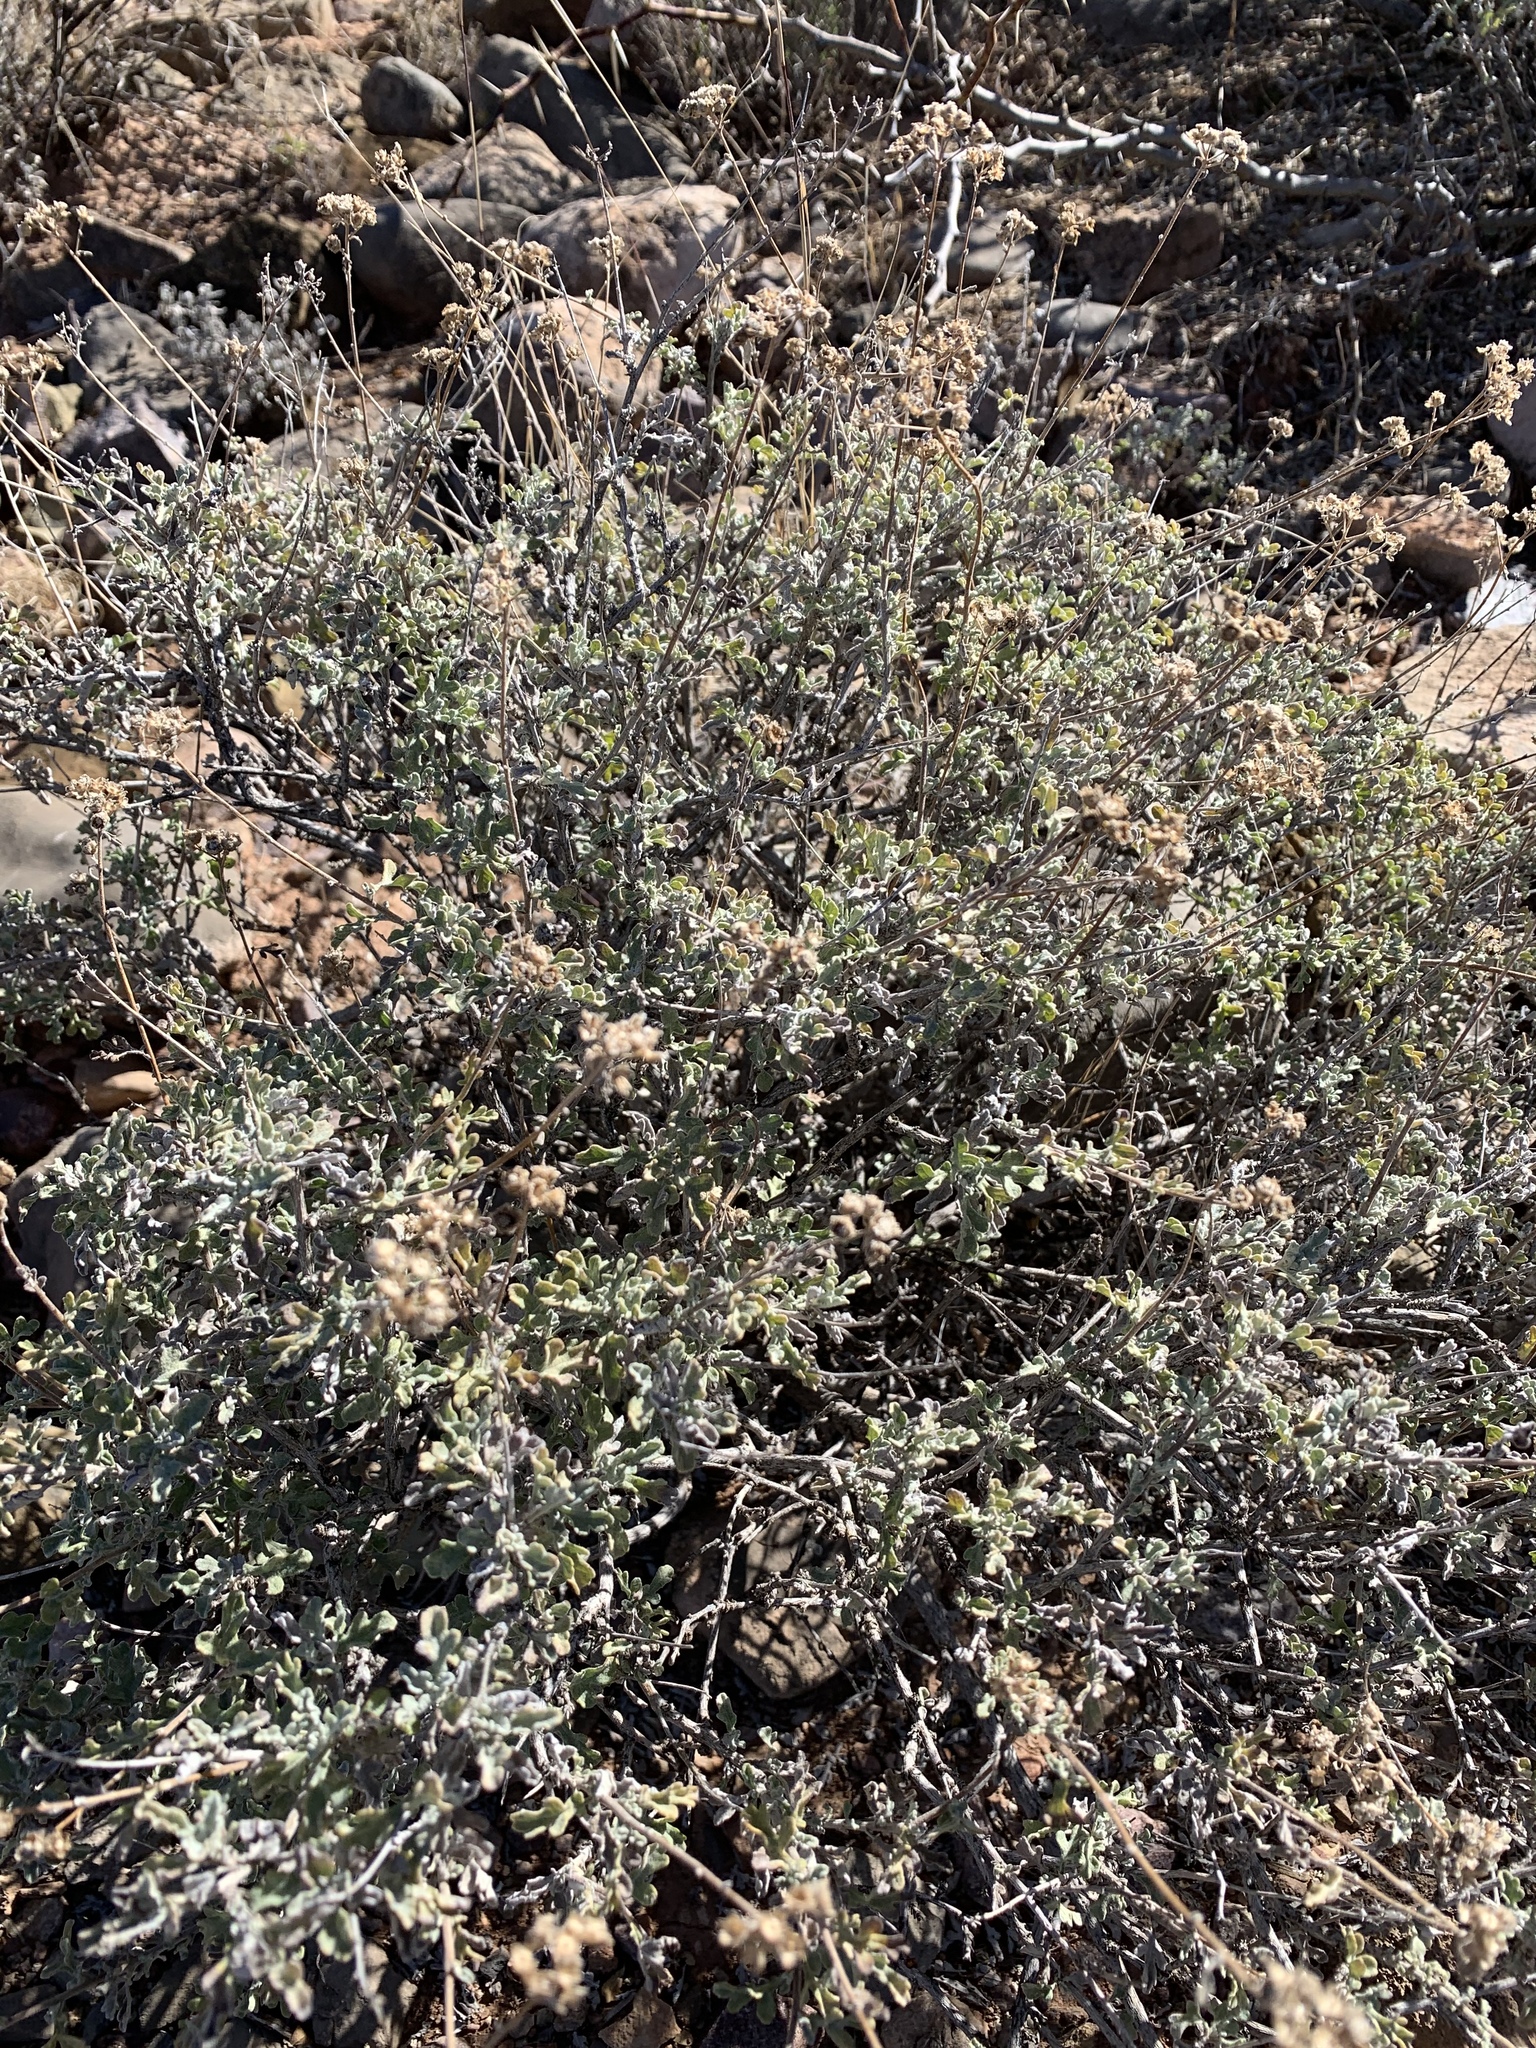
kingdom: Plantae
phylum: Tracheophyta
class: Magnoliopsida
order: Asterales
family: Asteraceae
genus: Parthenium
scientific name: Parthenium incanum
